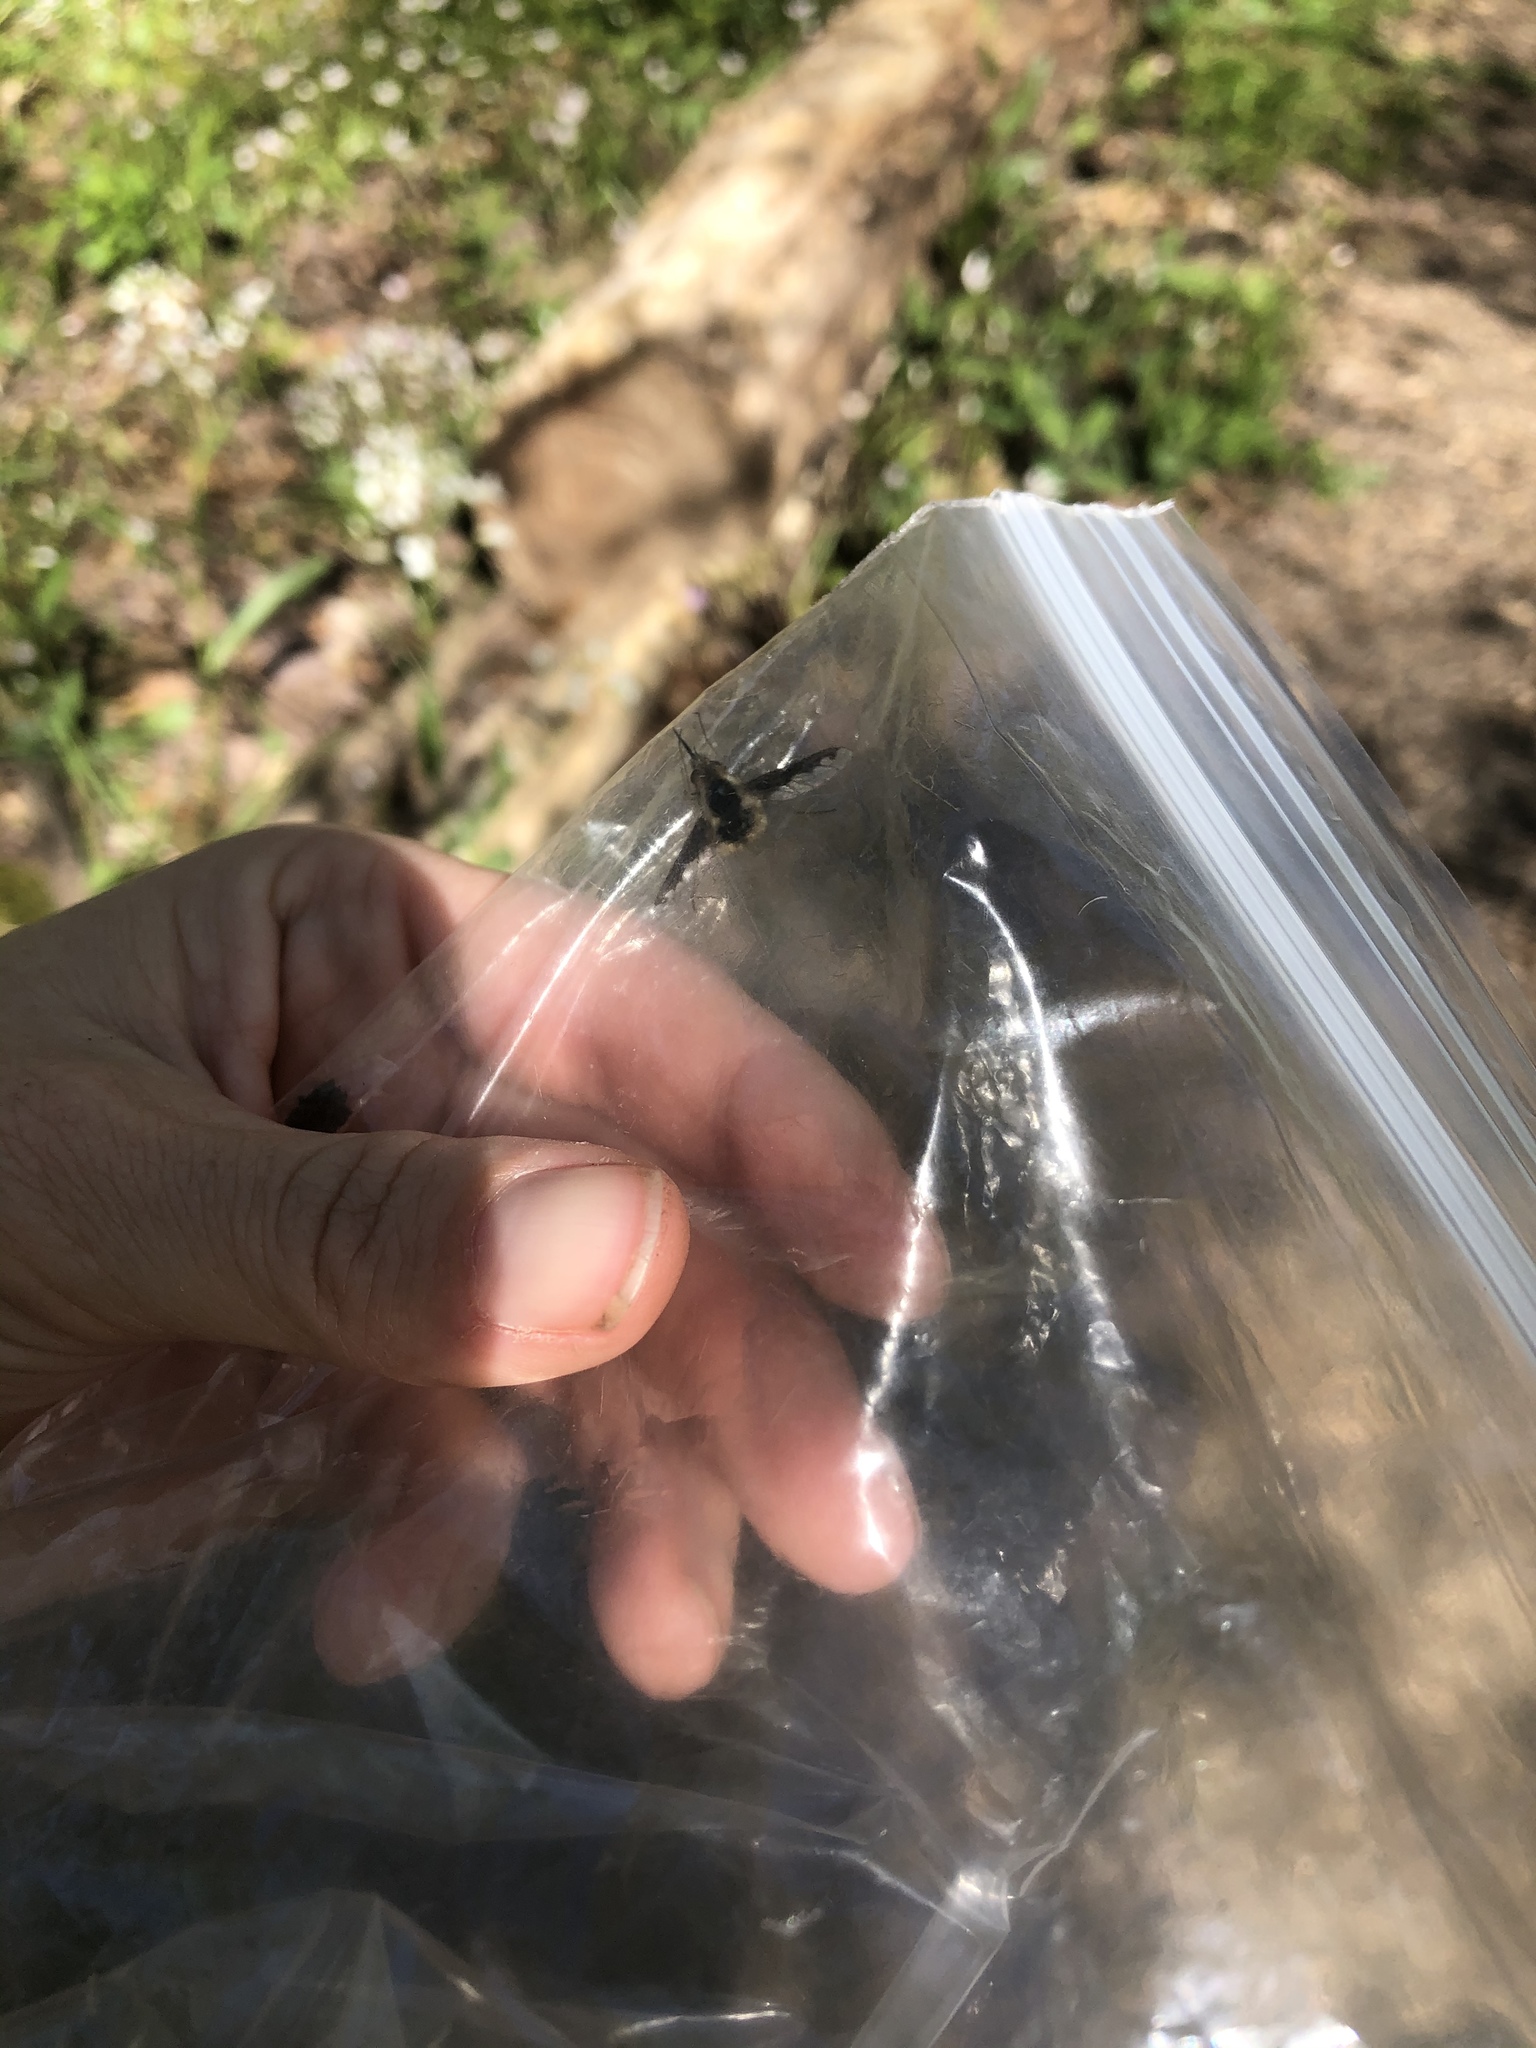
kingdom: Animalia
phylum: Arthropoda
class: Insecta
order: Diptera
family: Bombyliidae
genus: Bombylius
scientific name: Bombylius major
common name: Bee fly
